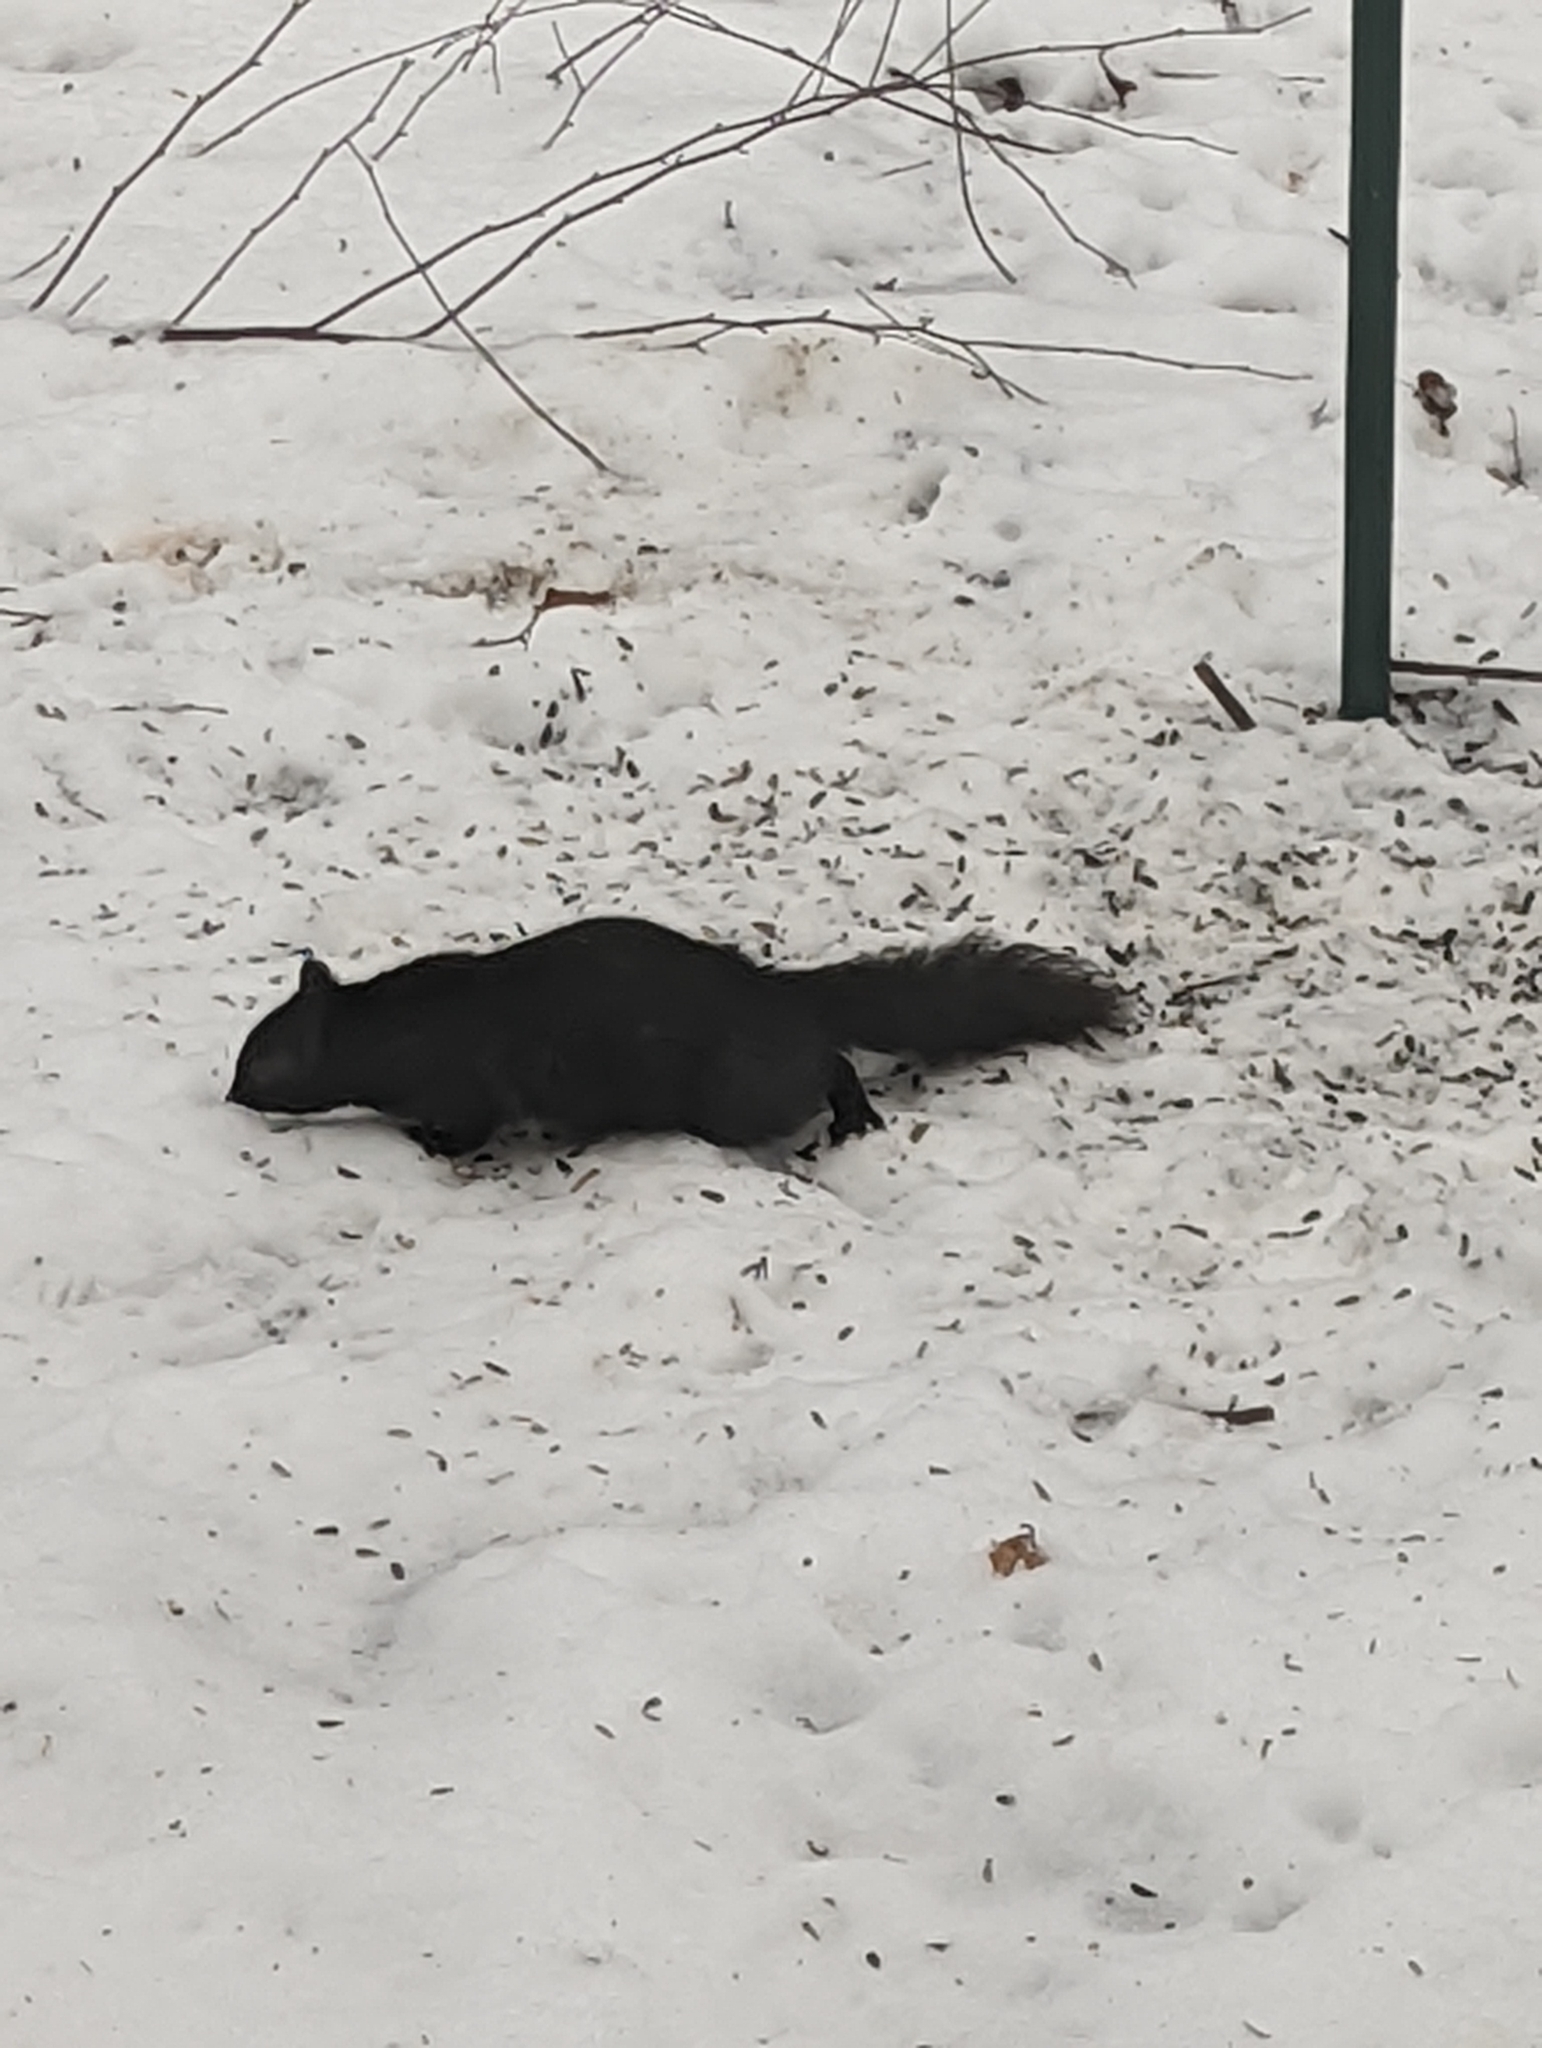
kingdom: Animalia
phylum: Chordata
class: Mammalia
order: Rodentia
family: Sciuridae
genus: Sciurus
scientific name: Sciurus carolinensis
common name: Eastern gray squirrel
